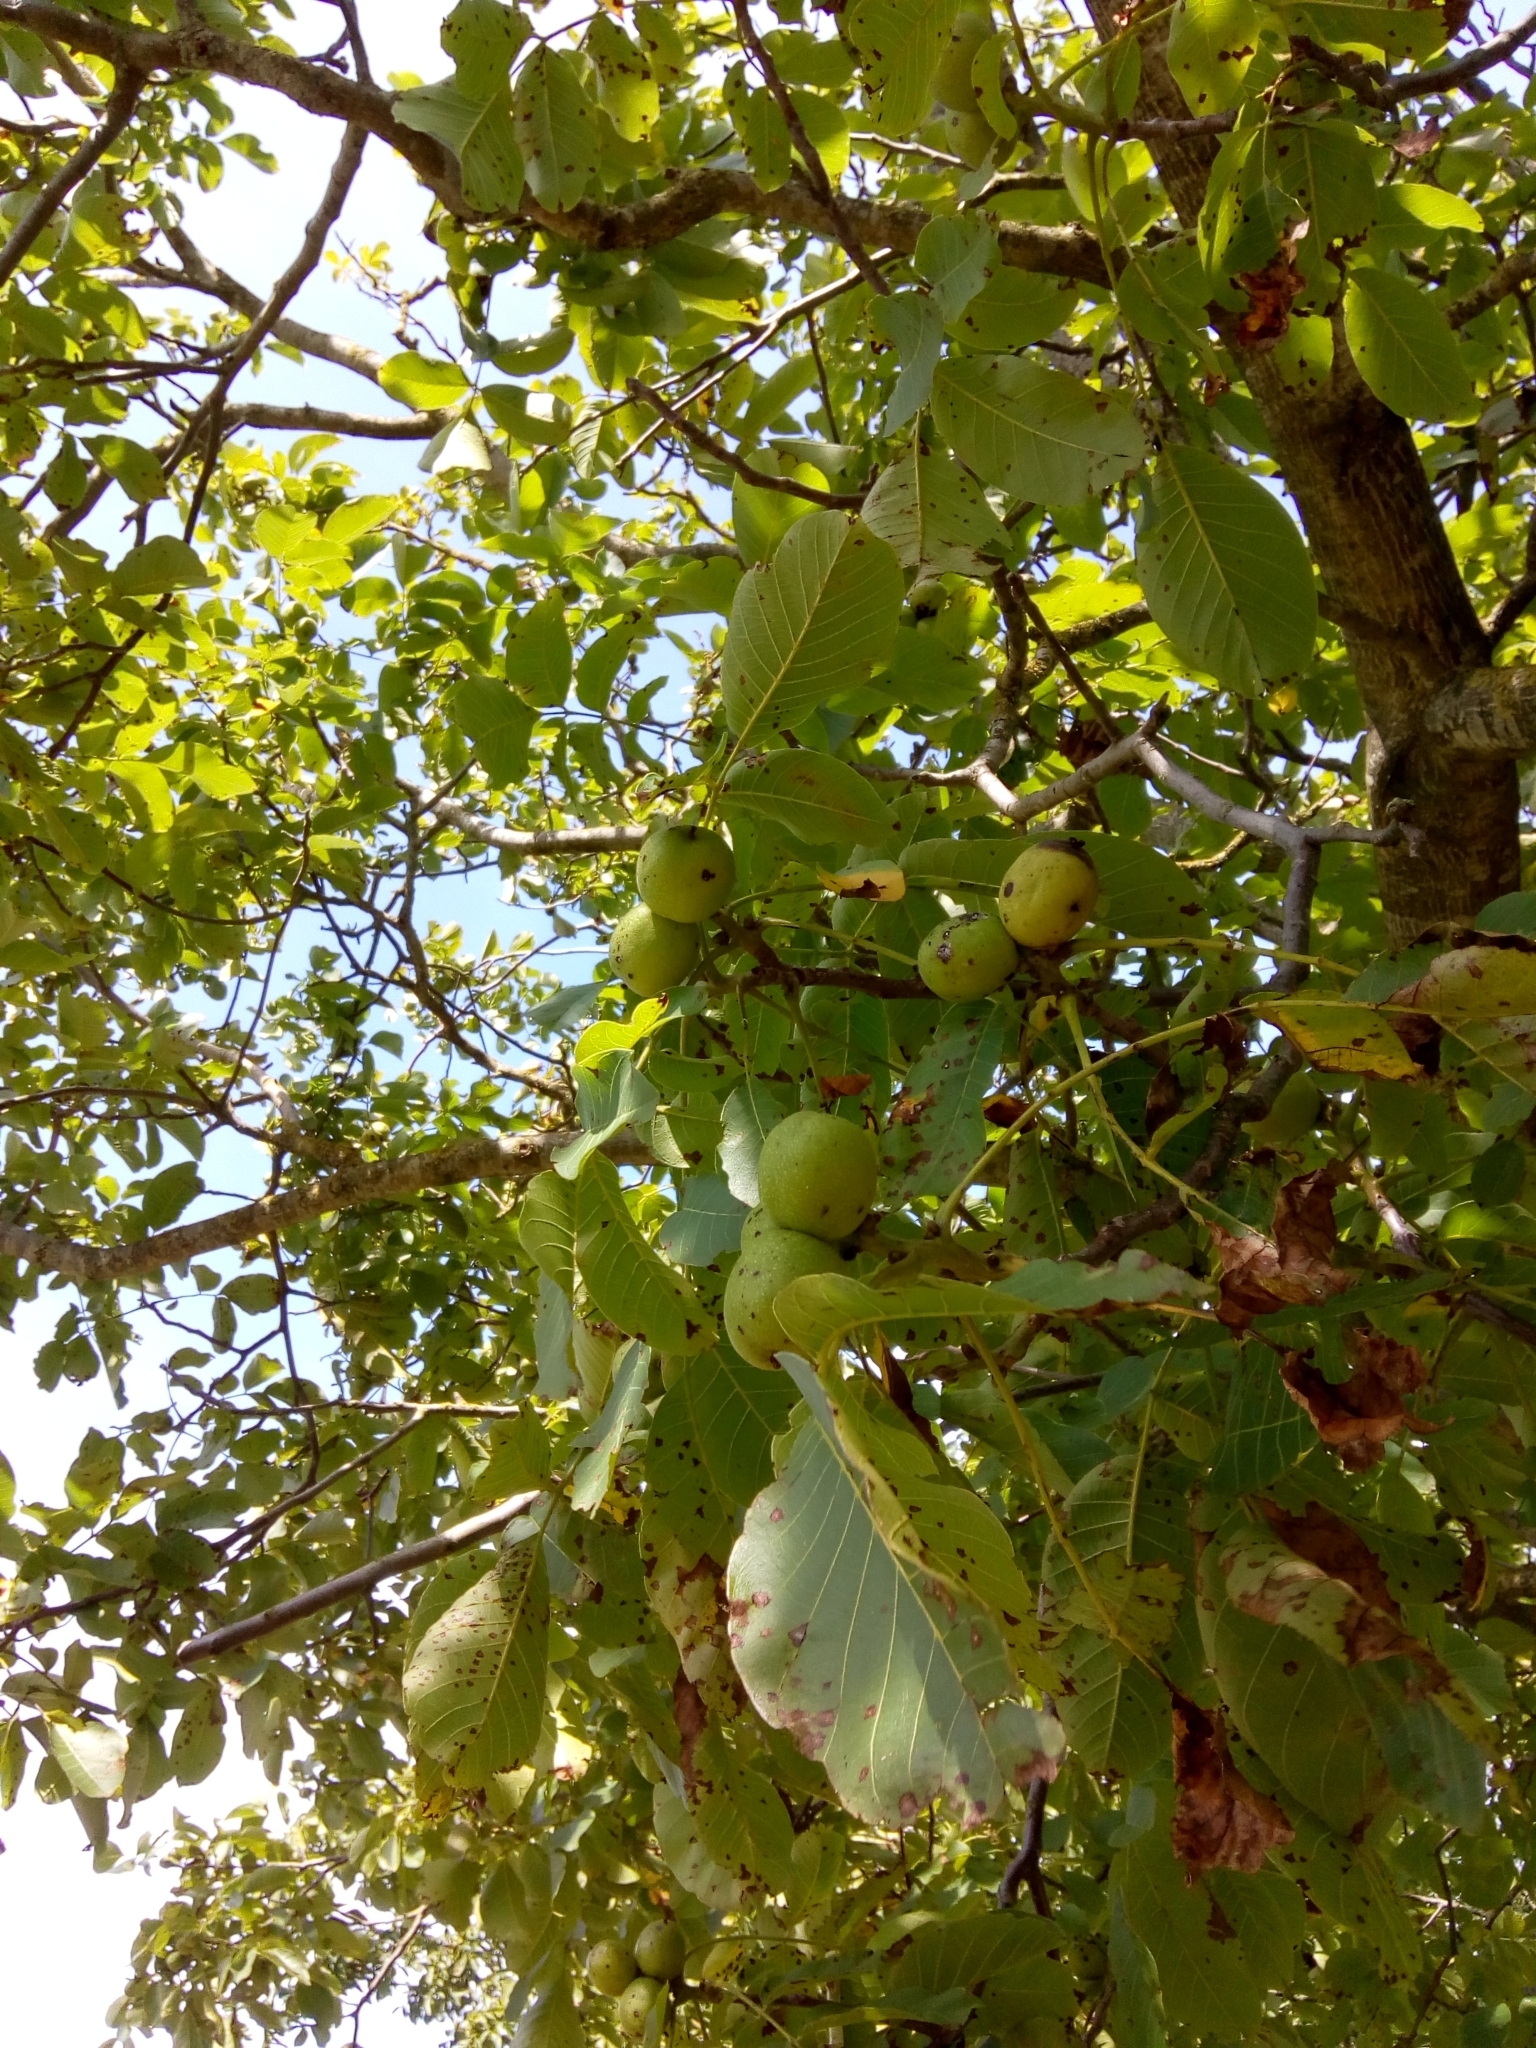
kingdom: Plantae
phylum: Tracheophyta
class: Magnoliopsida
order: Fagales
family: Juglandaceae
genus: Juglans
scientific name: Juglans regia
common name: Walnut
